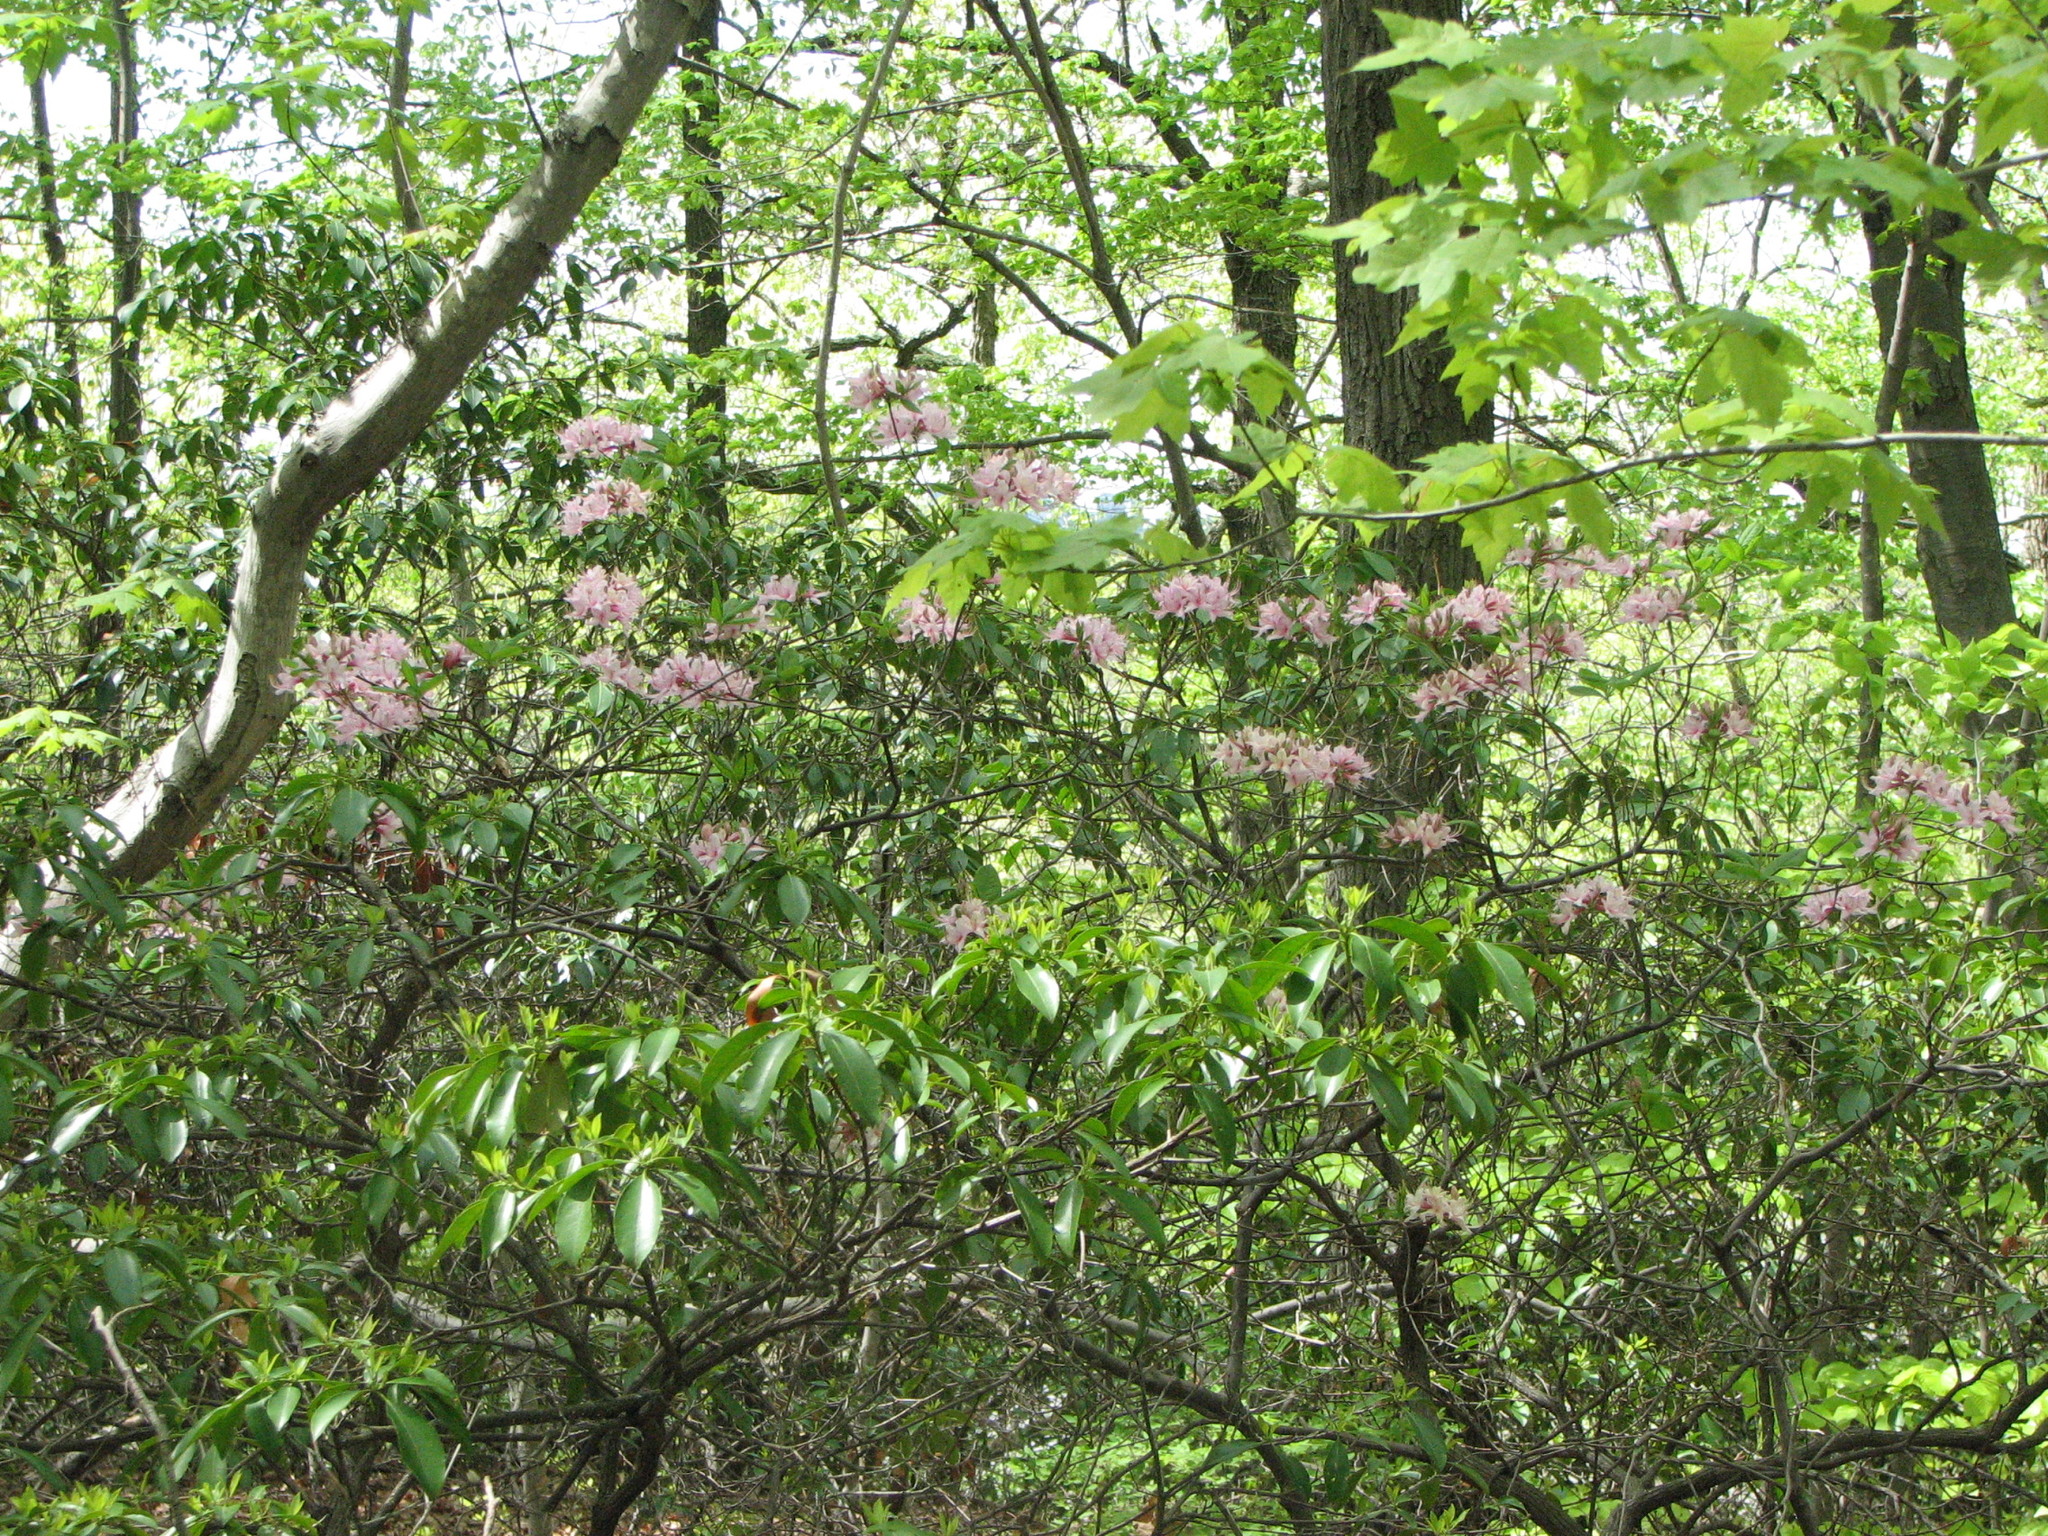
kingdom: Plantae
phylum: Tracheophyta
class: Magnoliopsida
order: Ericales
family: Ericaceae
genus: Rhododendron
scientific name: Rhododendron maximum
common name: Great rhododendron
